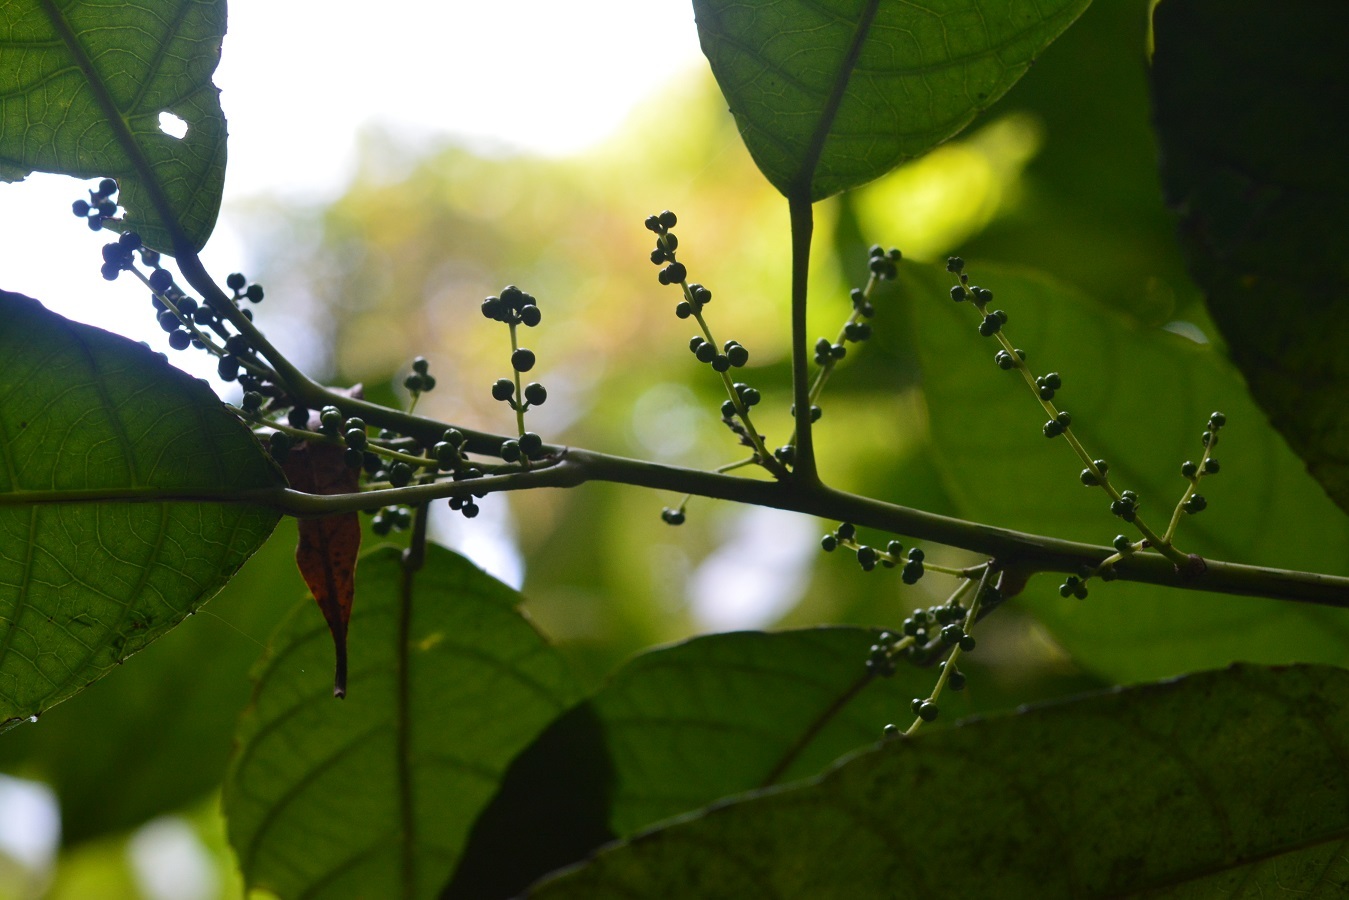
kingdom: Plantae
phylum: Tracheophyta
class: Magnoliopsida
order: Malpighiales
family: Euphorbiaceae
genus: Cleidion
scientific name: Cleidion castaneifolium
